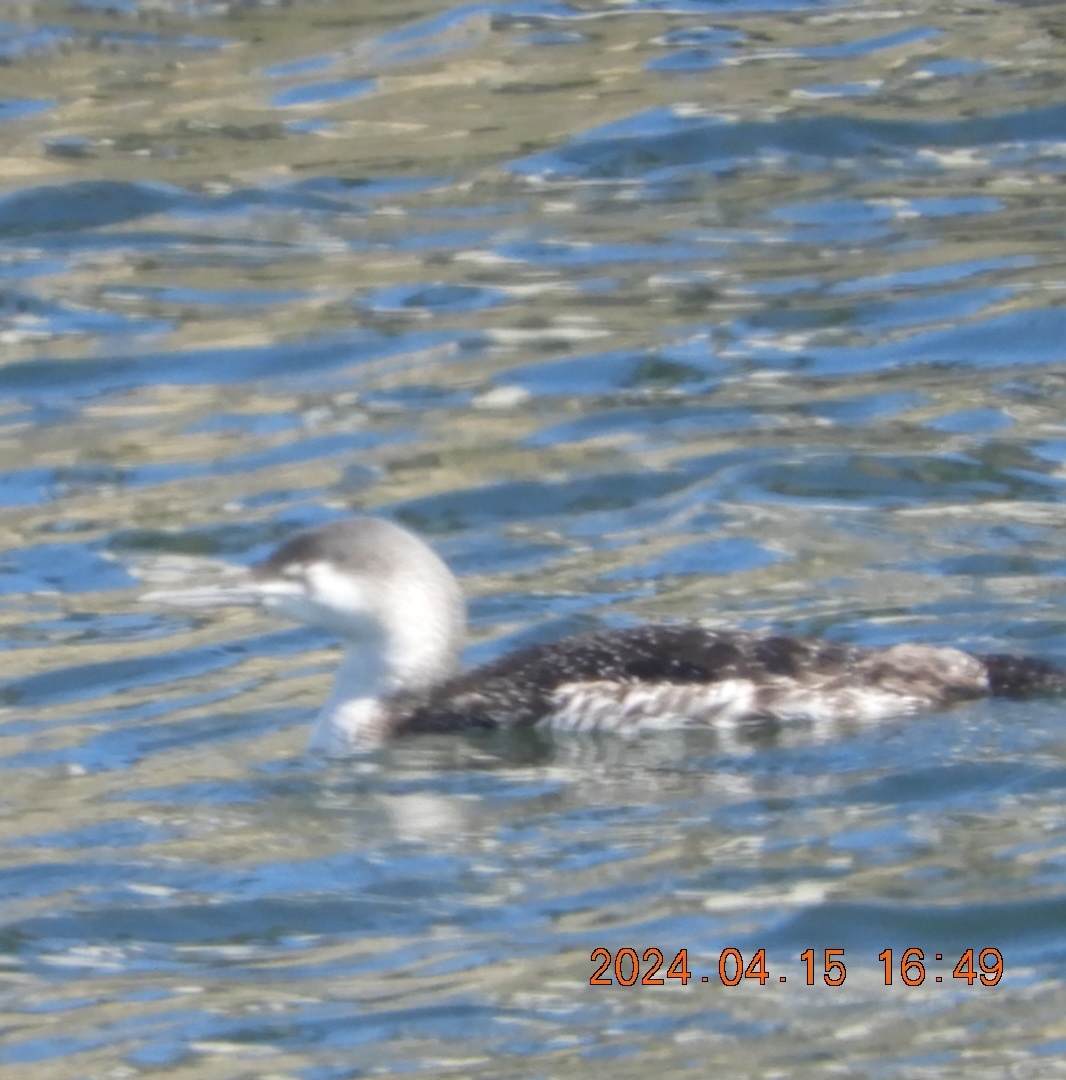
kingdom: Animalia
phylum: Chordata
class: Aves
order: Gaviiformes
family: Gaviidae
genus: Gavia
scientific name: Gavia stellata
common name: Red-throated loon
